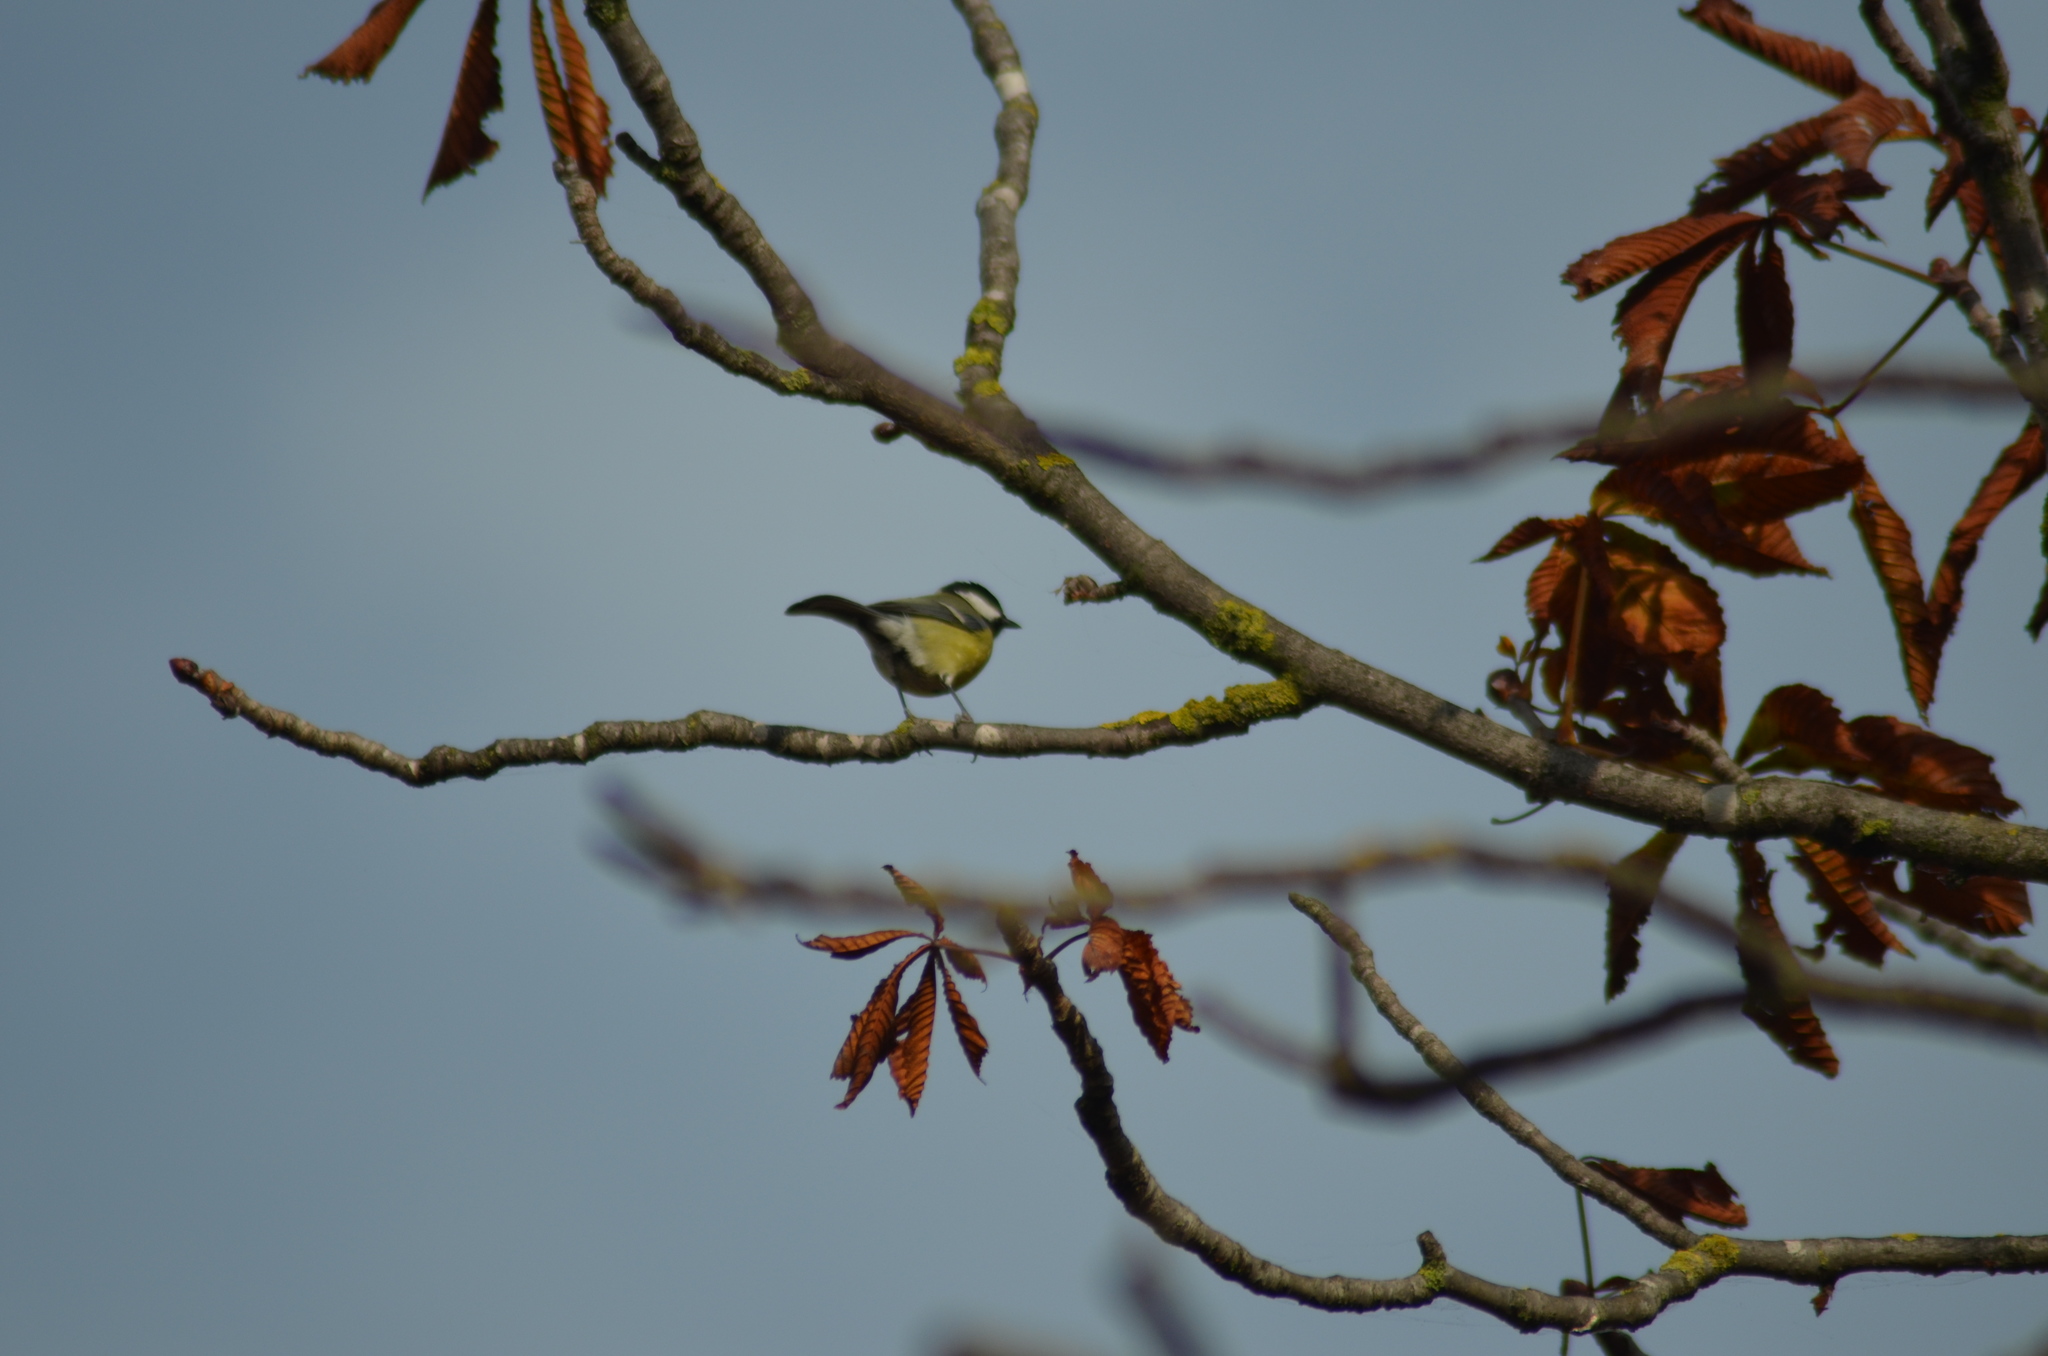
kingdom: Animalia
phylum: Chordata
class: Aves
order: Passeriformes
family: Paridae
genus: Parus
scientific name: Parus major
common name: Great tit
